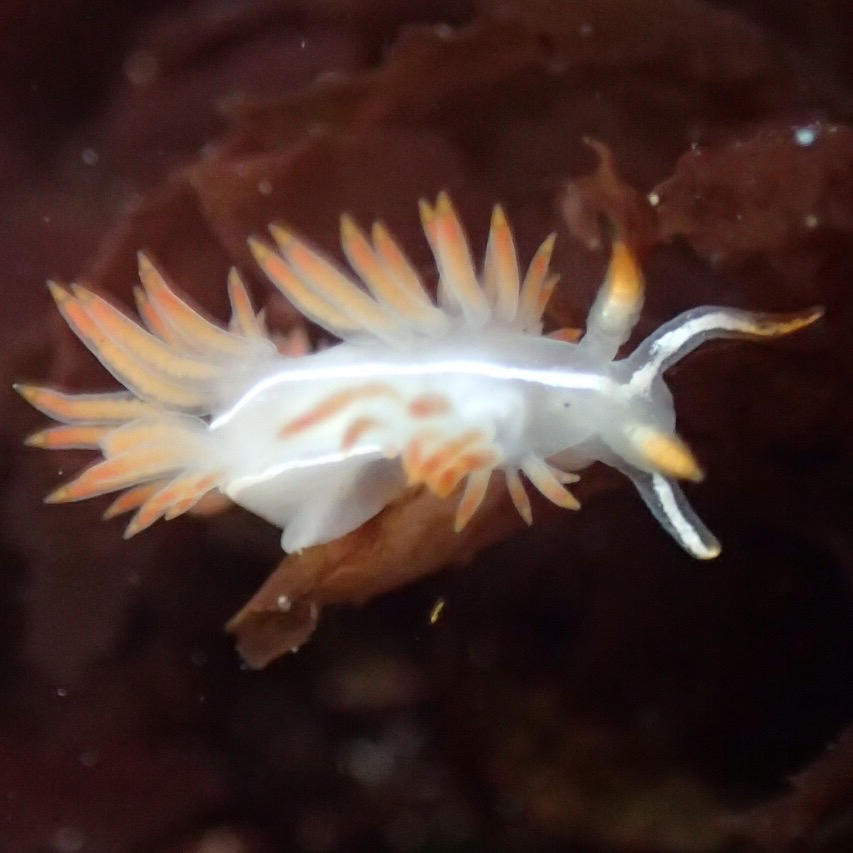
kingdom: Animalia
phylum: Mollusca
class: Gastropoda
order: Nudibranchia
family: Coryphellidae
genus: Coryphella
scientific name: Coryphella trilineata
